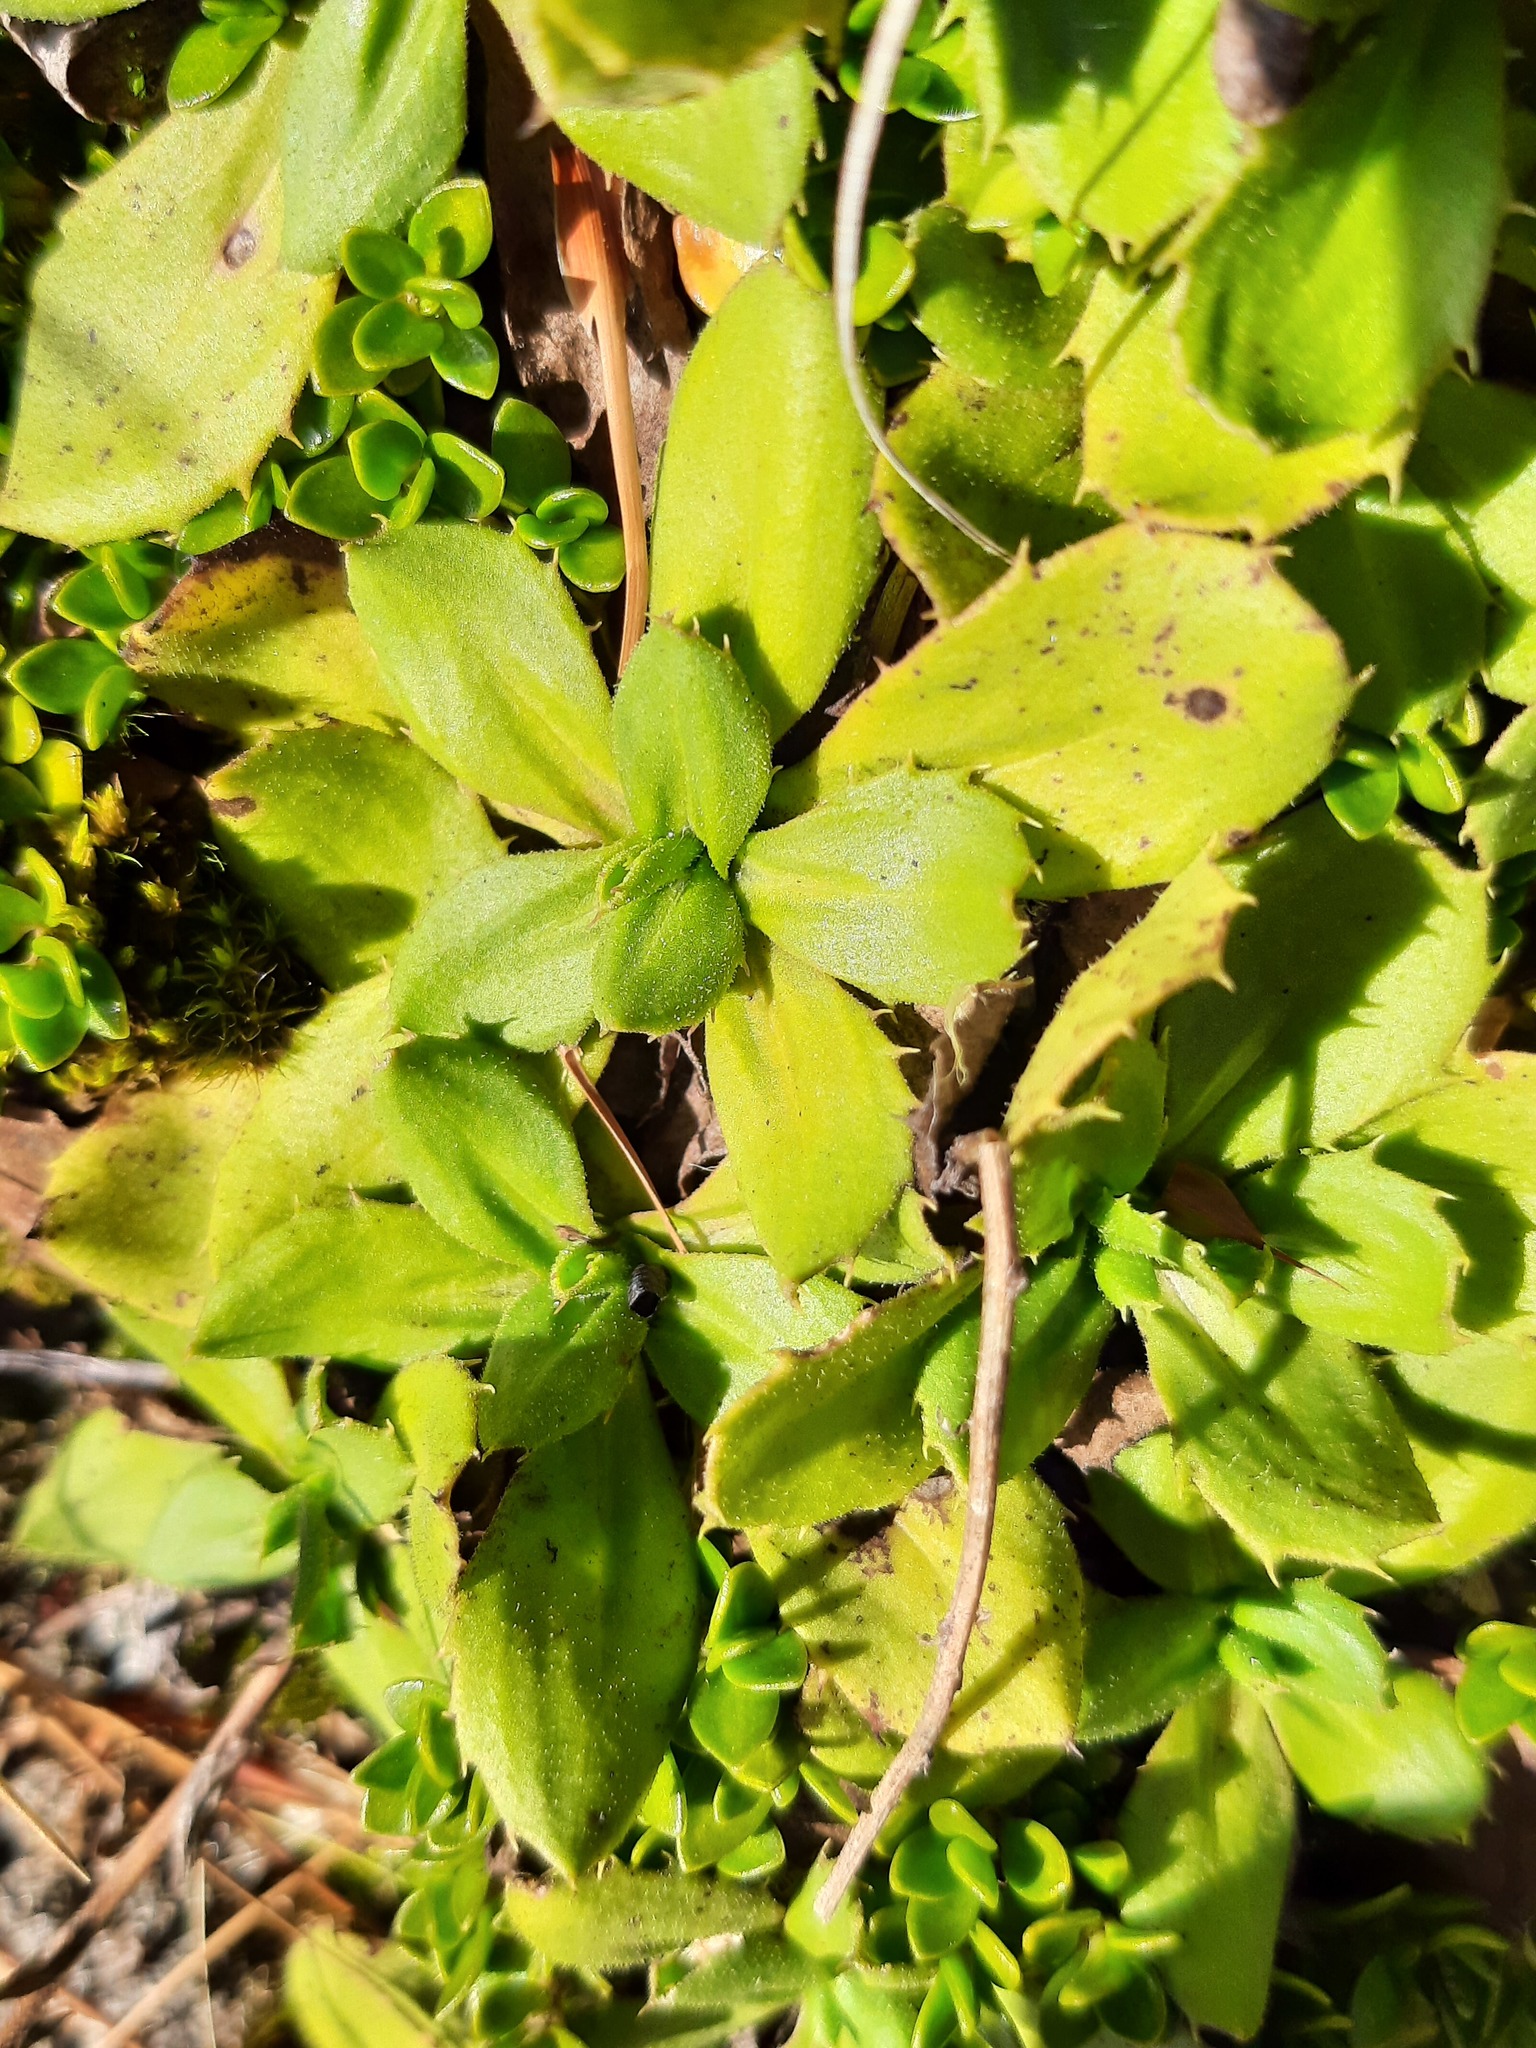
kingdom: Plantae
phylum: Tracheophyta
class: Magnoliopsida
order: Asterales
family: Asteraceae
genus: Celmisia
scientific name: Celmisia glandulosa
